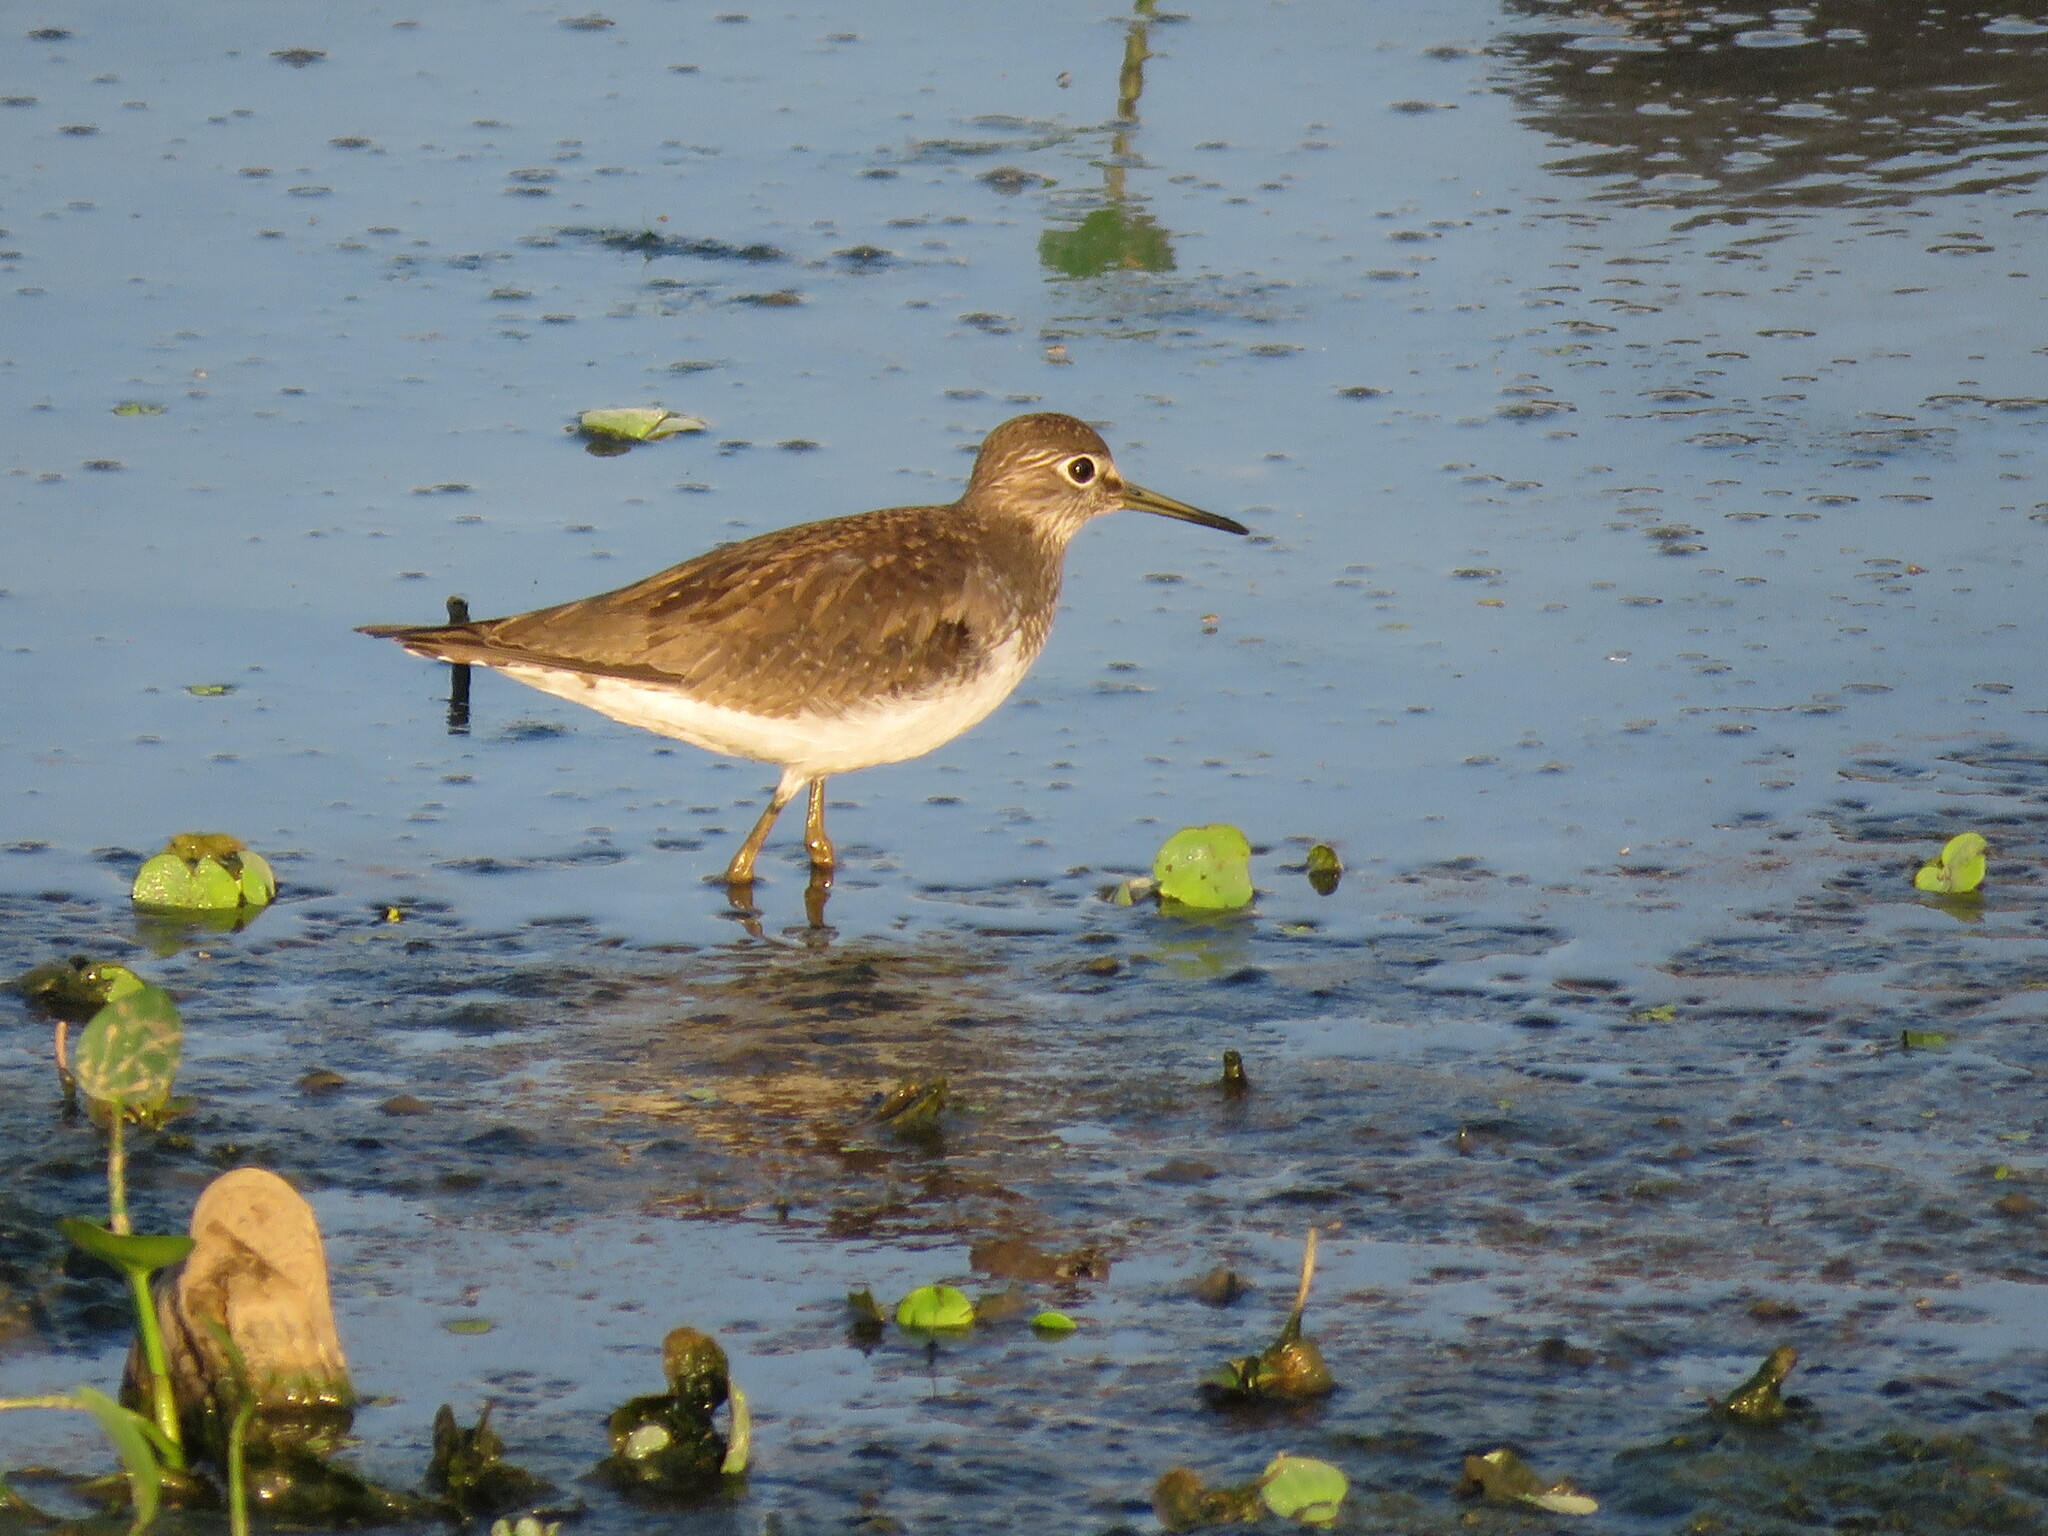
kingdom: Animalia
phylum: Chordata
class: Aves
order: Charadriiformes
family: Scolopacidae
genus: Tringa
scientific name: Tringa solitaria
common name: Solitary sandpiper
